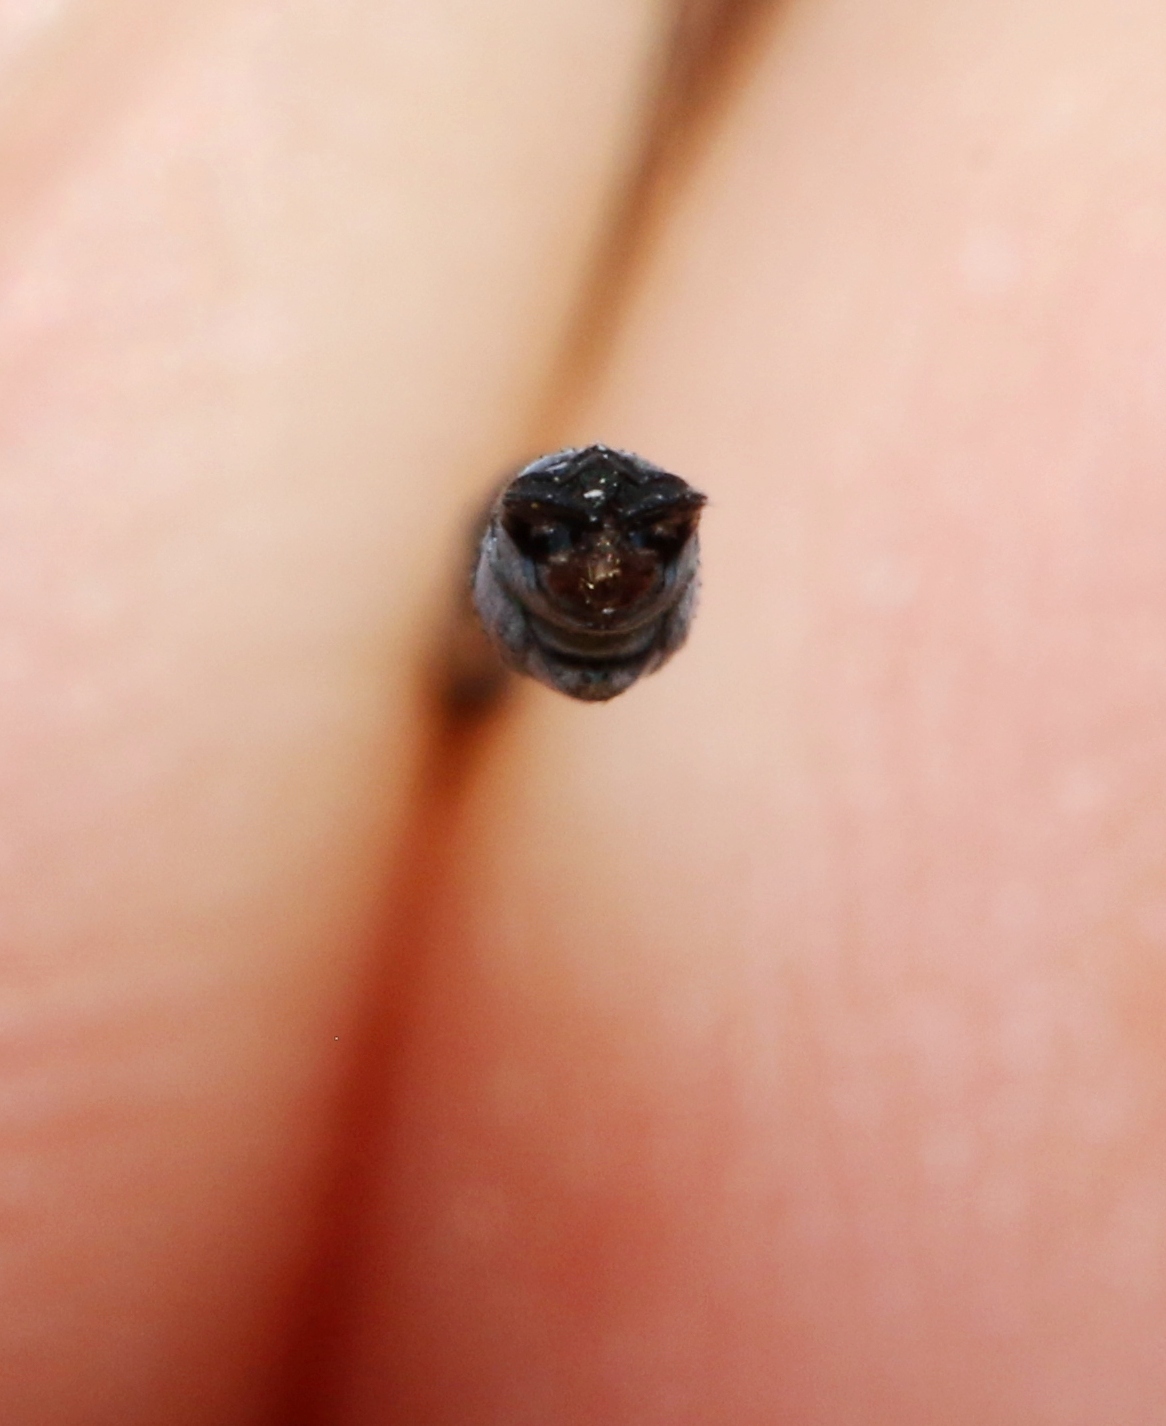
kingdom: Animalia
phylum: Arthropoda
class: Insecta
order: Odonata
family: Lestidae
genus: Lestes
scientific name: Lestes forcipatus
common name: Sweetflag spreadwing
